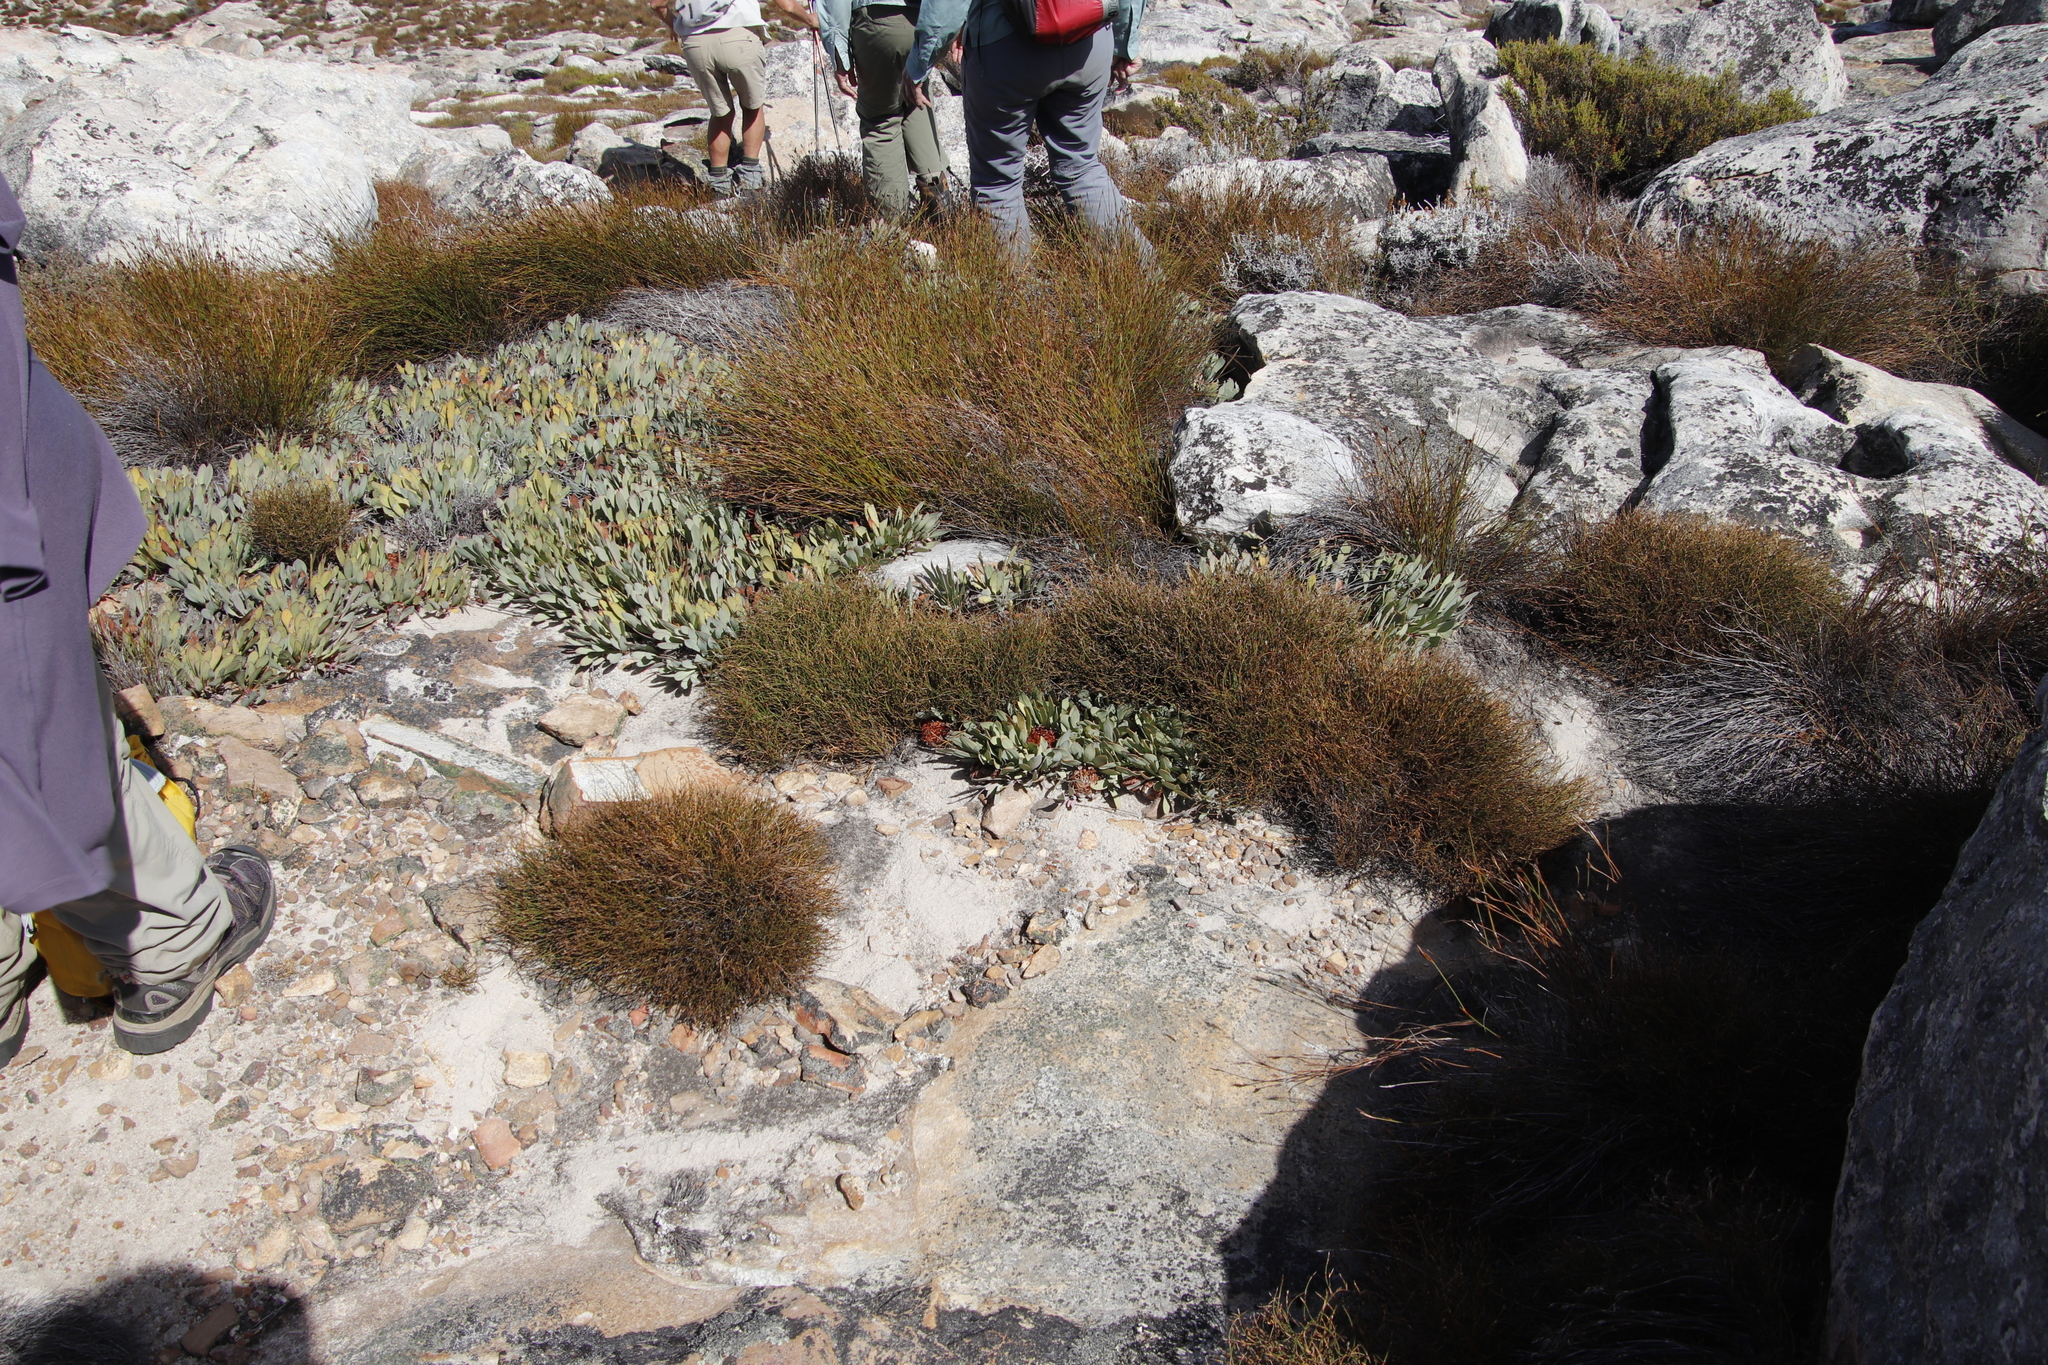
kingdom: Plantae
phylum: Tracheophyta
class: Magnoliopsida
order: Proteales
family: Proteaceae
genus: Protea
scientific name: Protea laevis
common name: Smooth-leaf sugarbush
